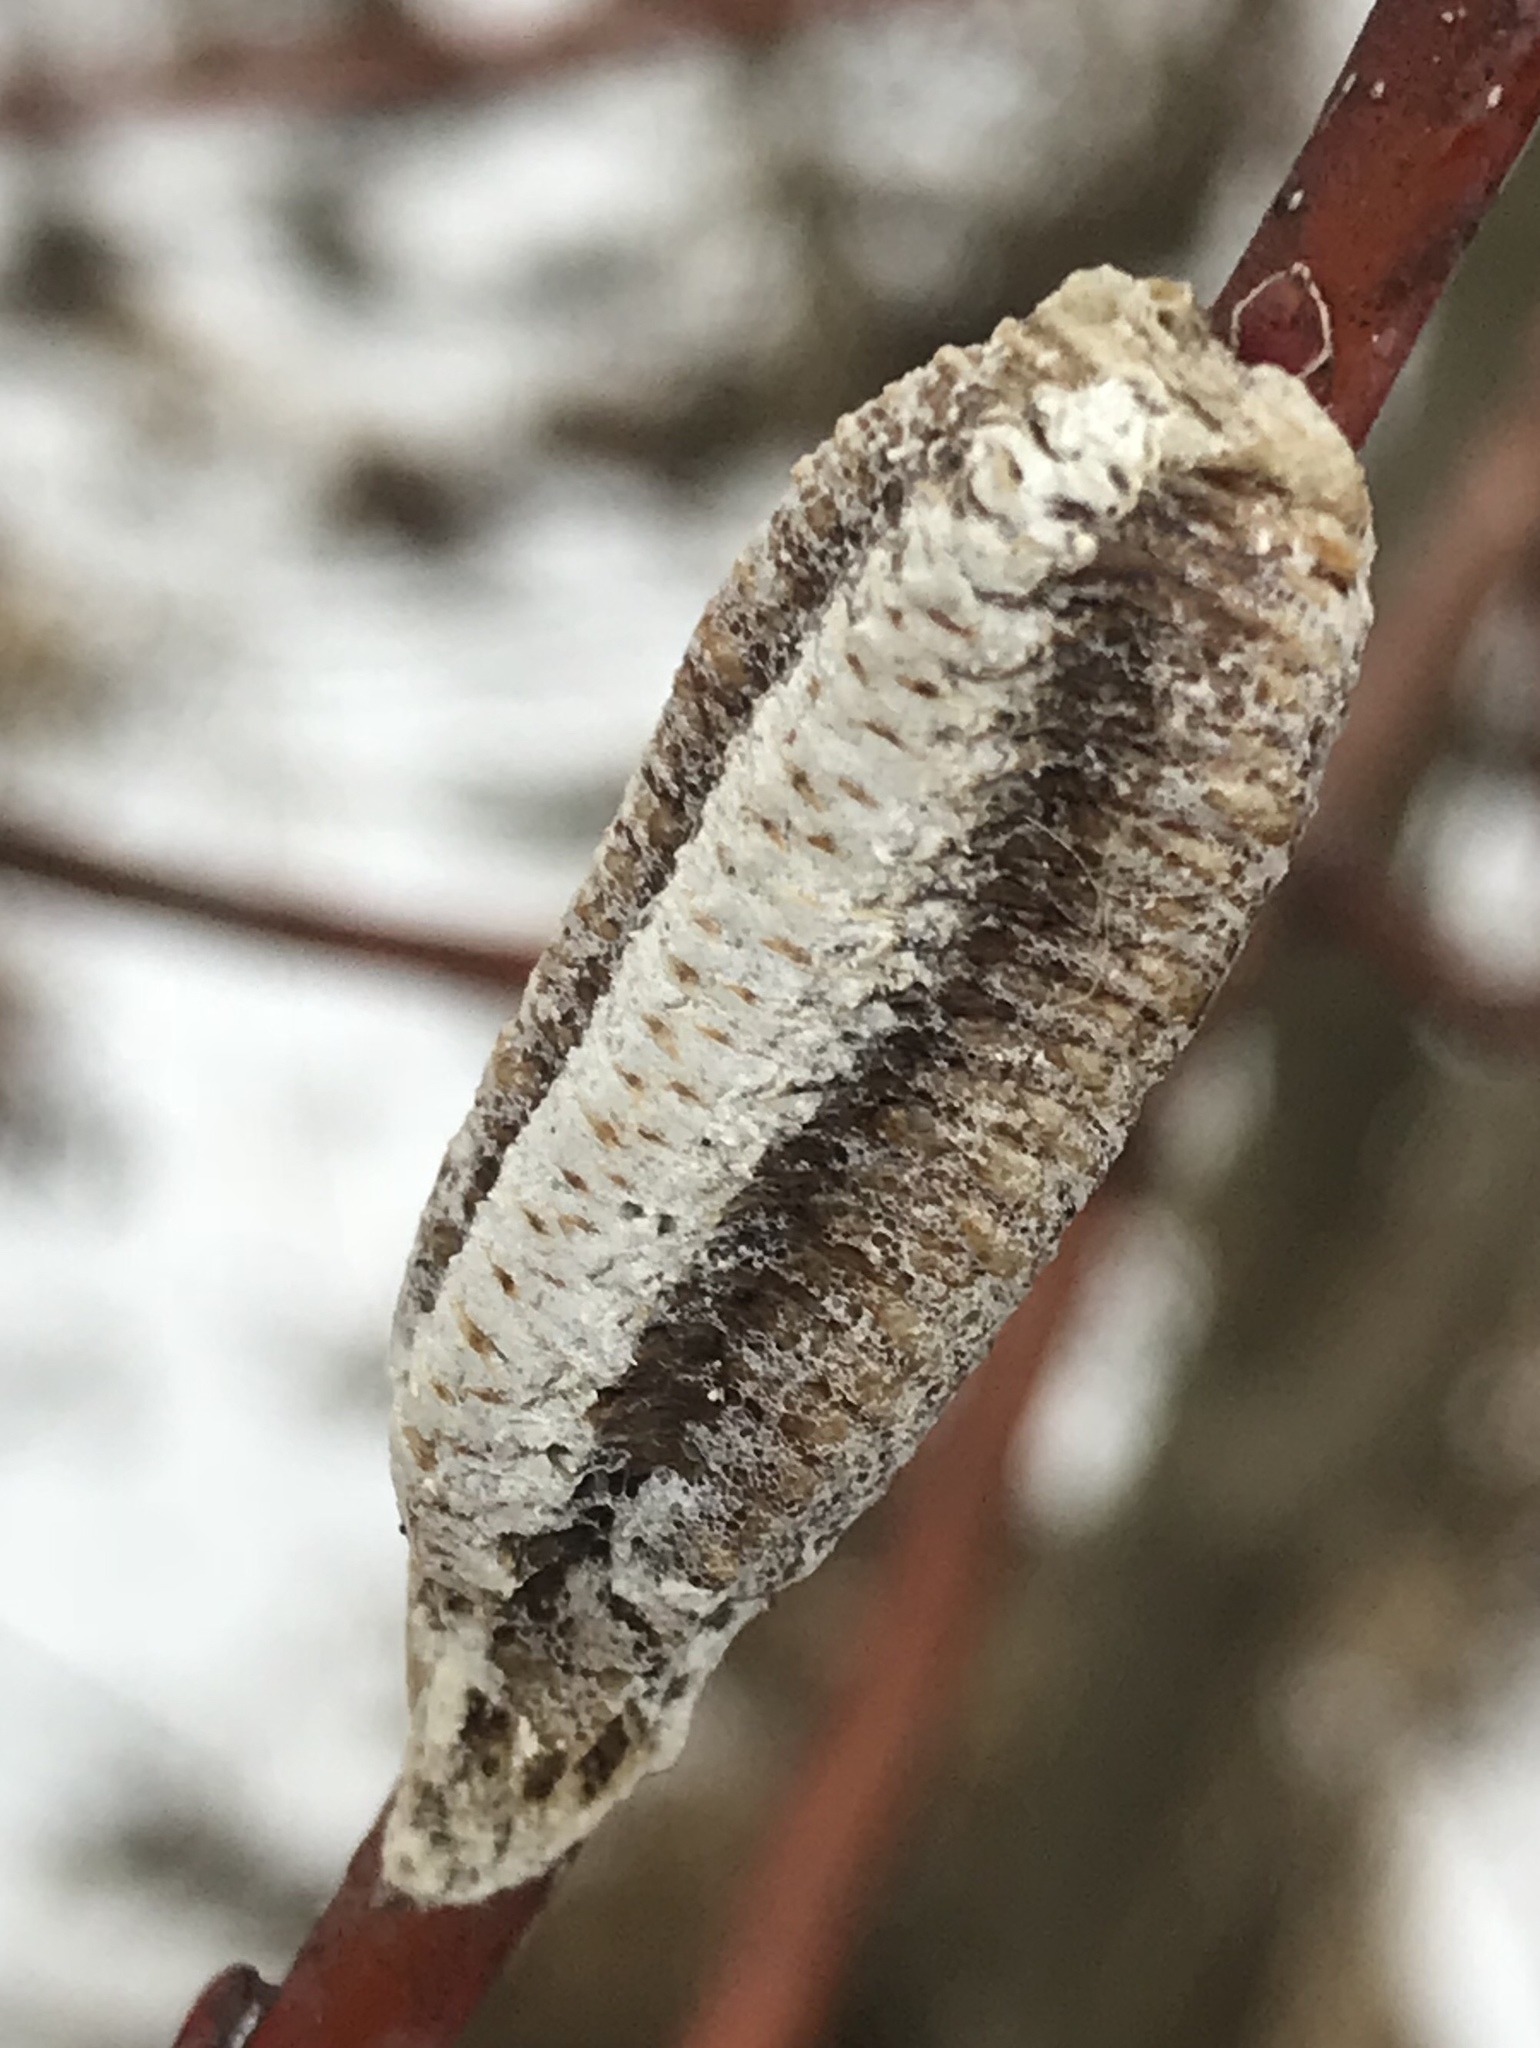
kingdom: Animalia
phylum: Arthropoda
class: Insecta
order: Mantodea
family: Mantidae
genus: Stagmomantis
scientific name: Stagmomantis carolina
